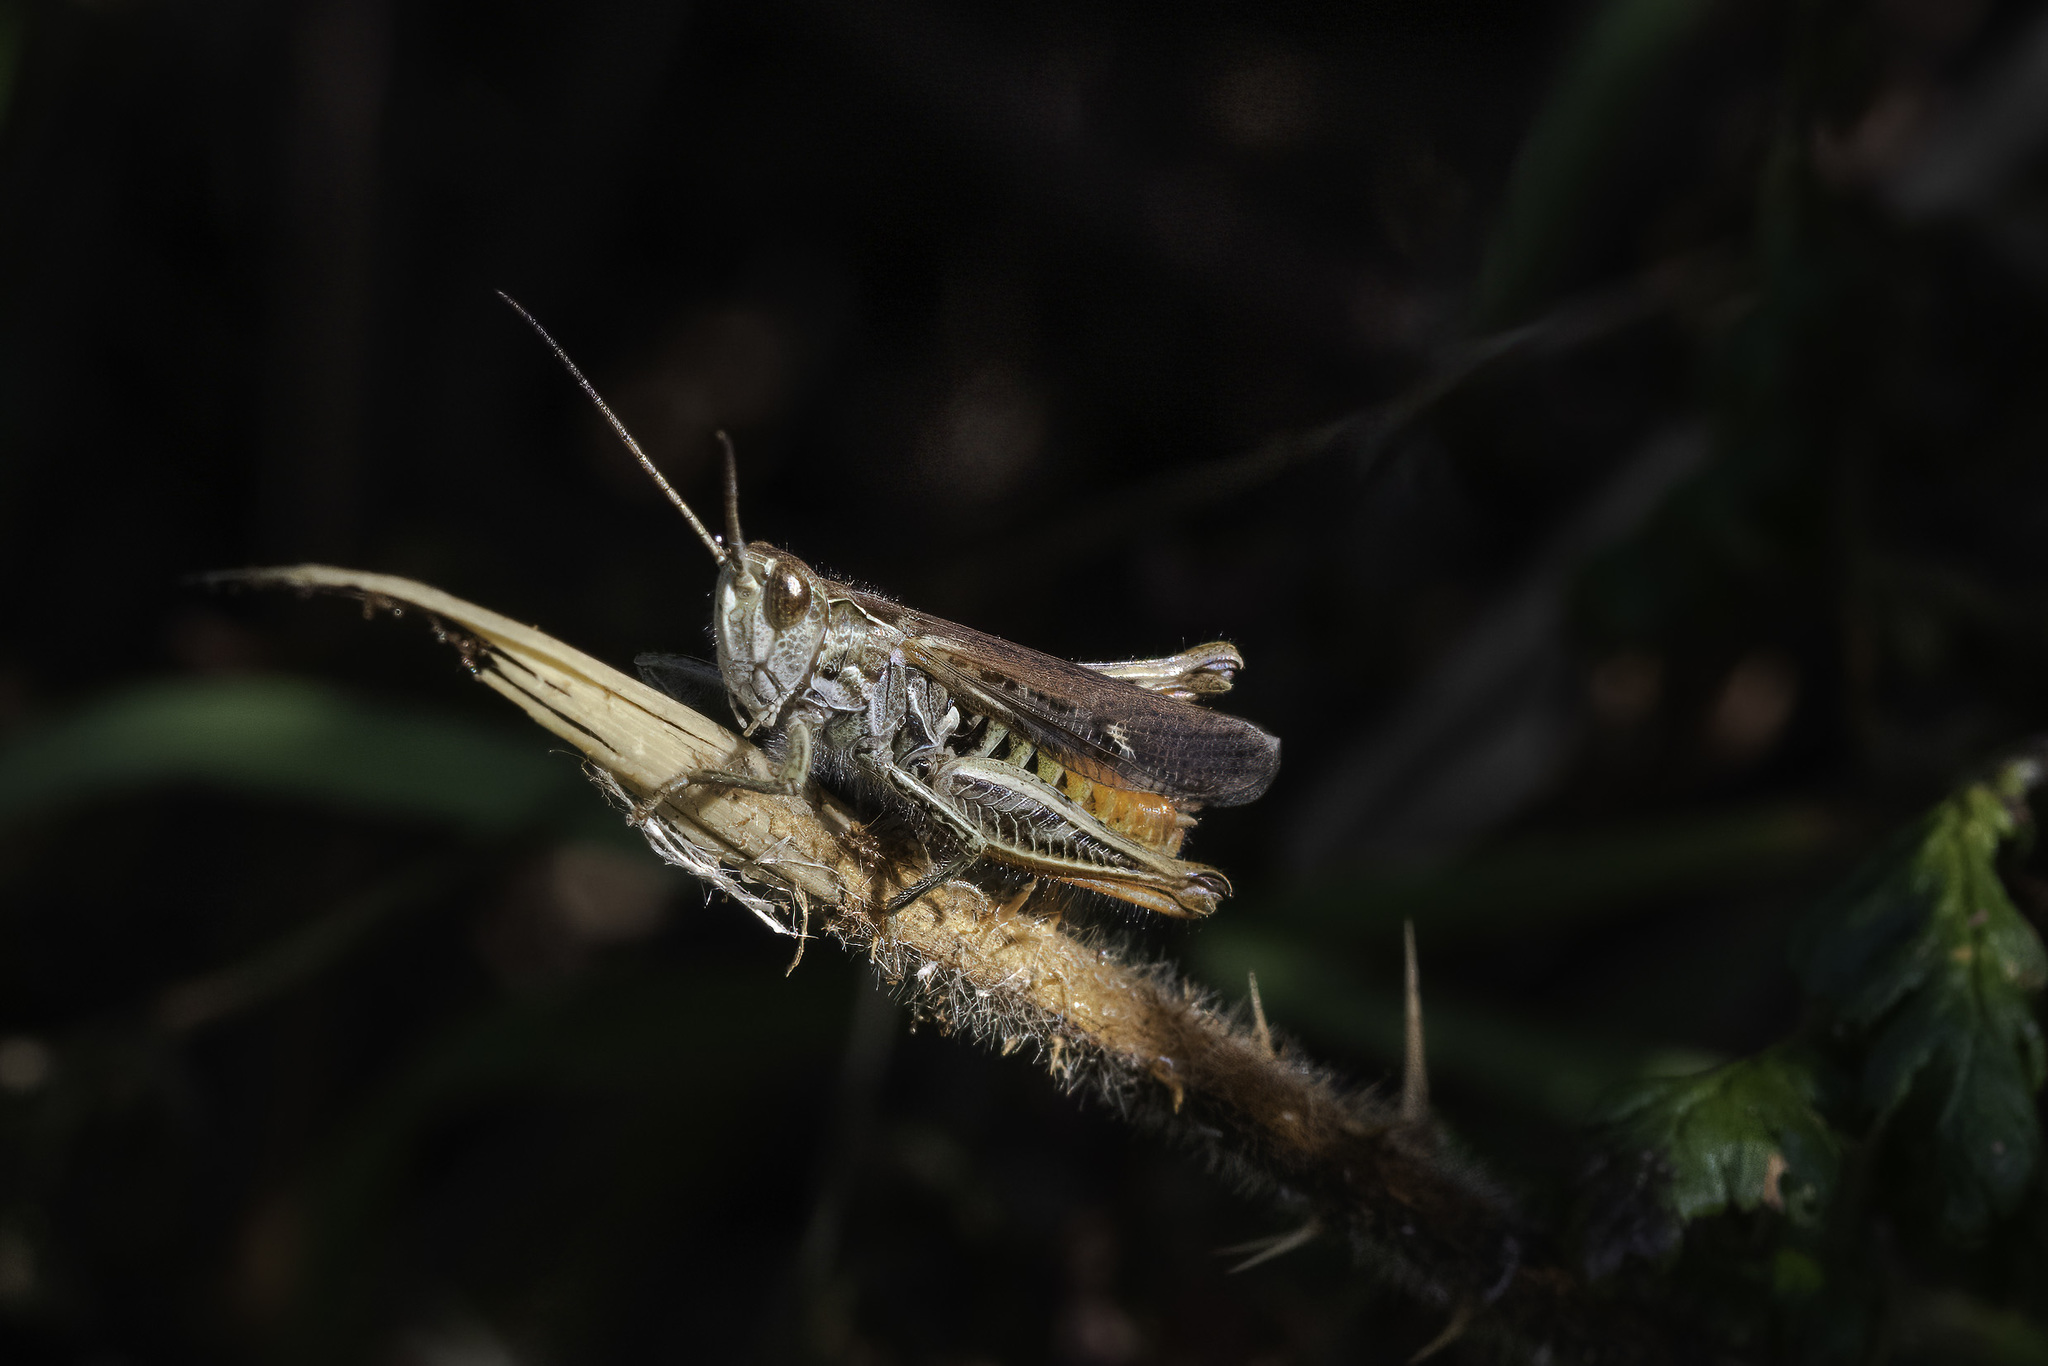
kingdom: Animalia
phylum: Arthropoda
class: Insecta
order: Orthoptera
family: Acrididae
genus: Chorthippus
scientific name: Chorthippus brunneus
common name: Field grasshopper
